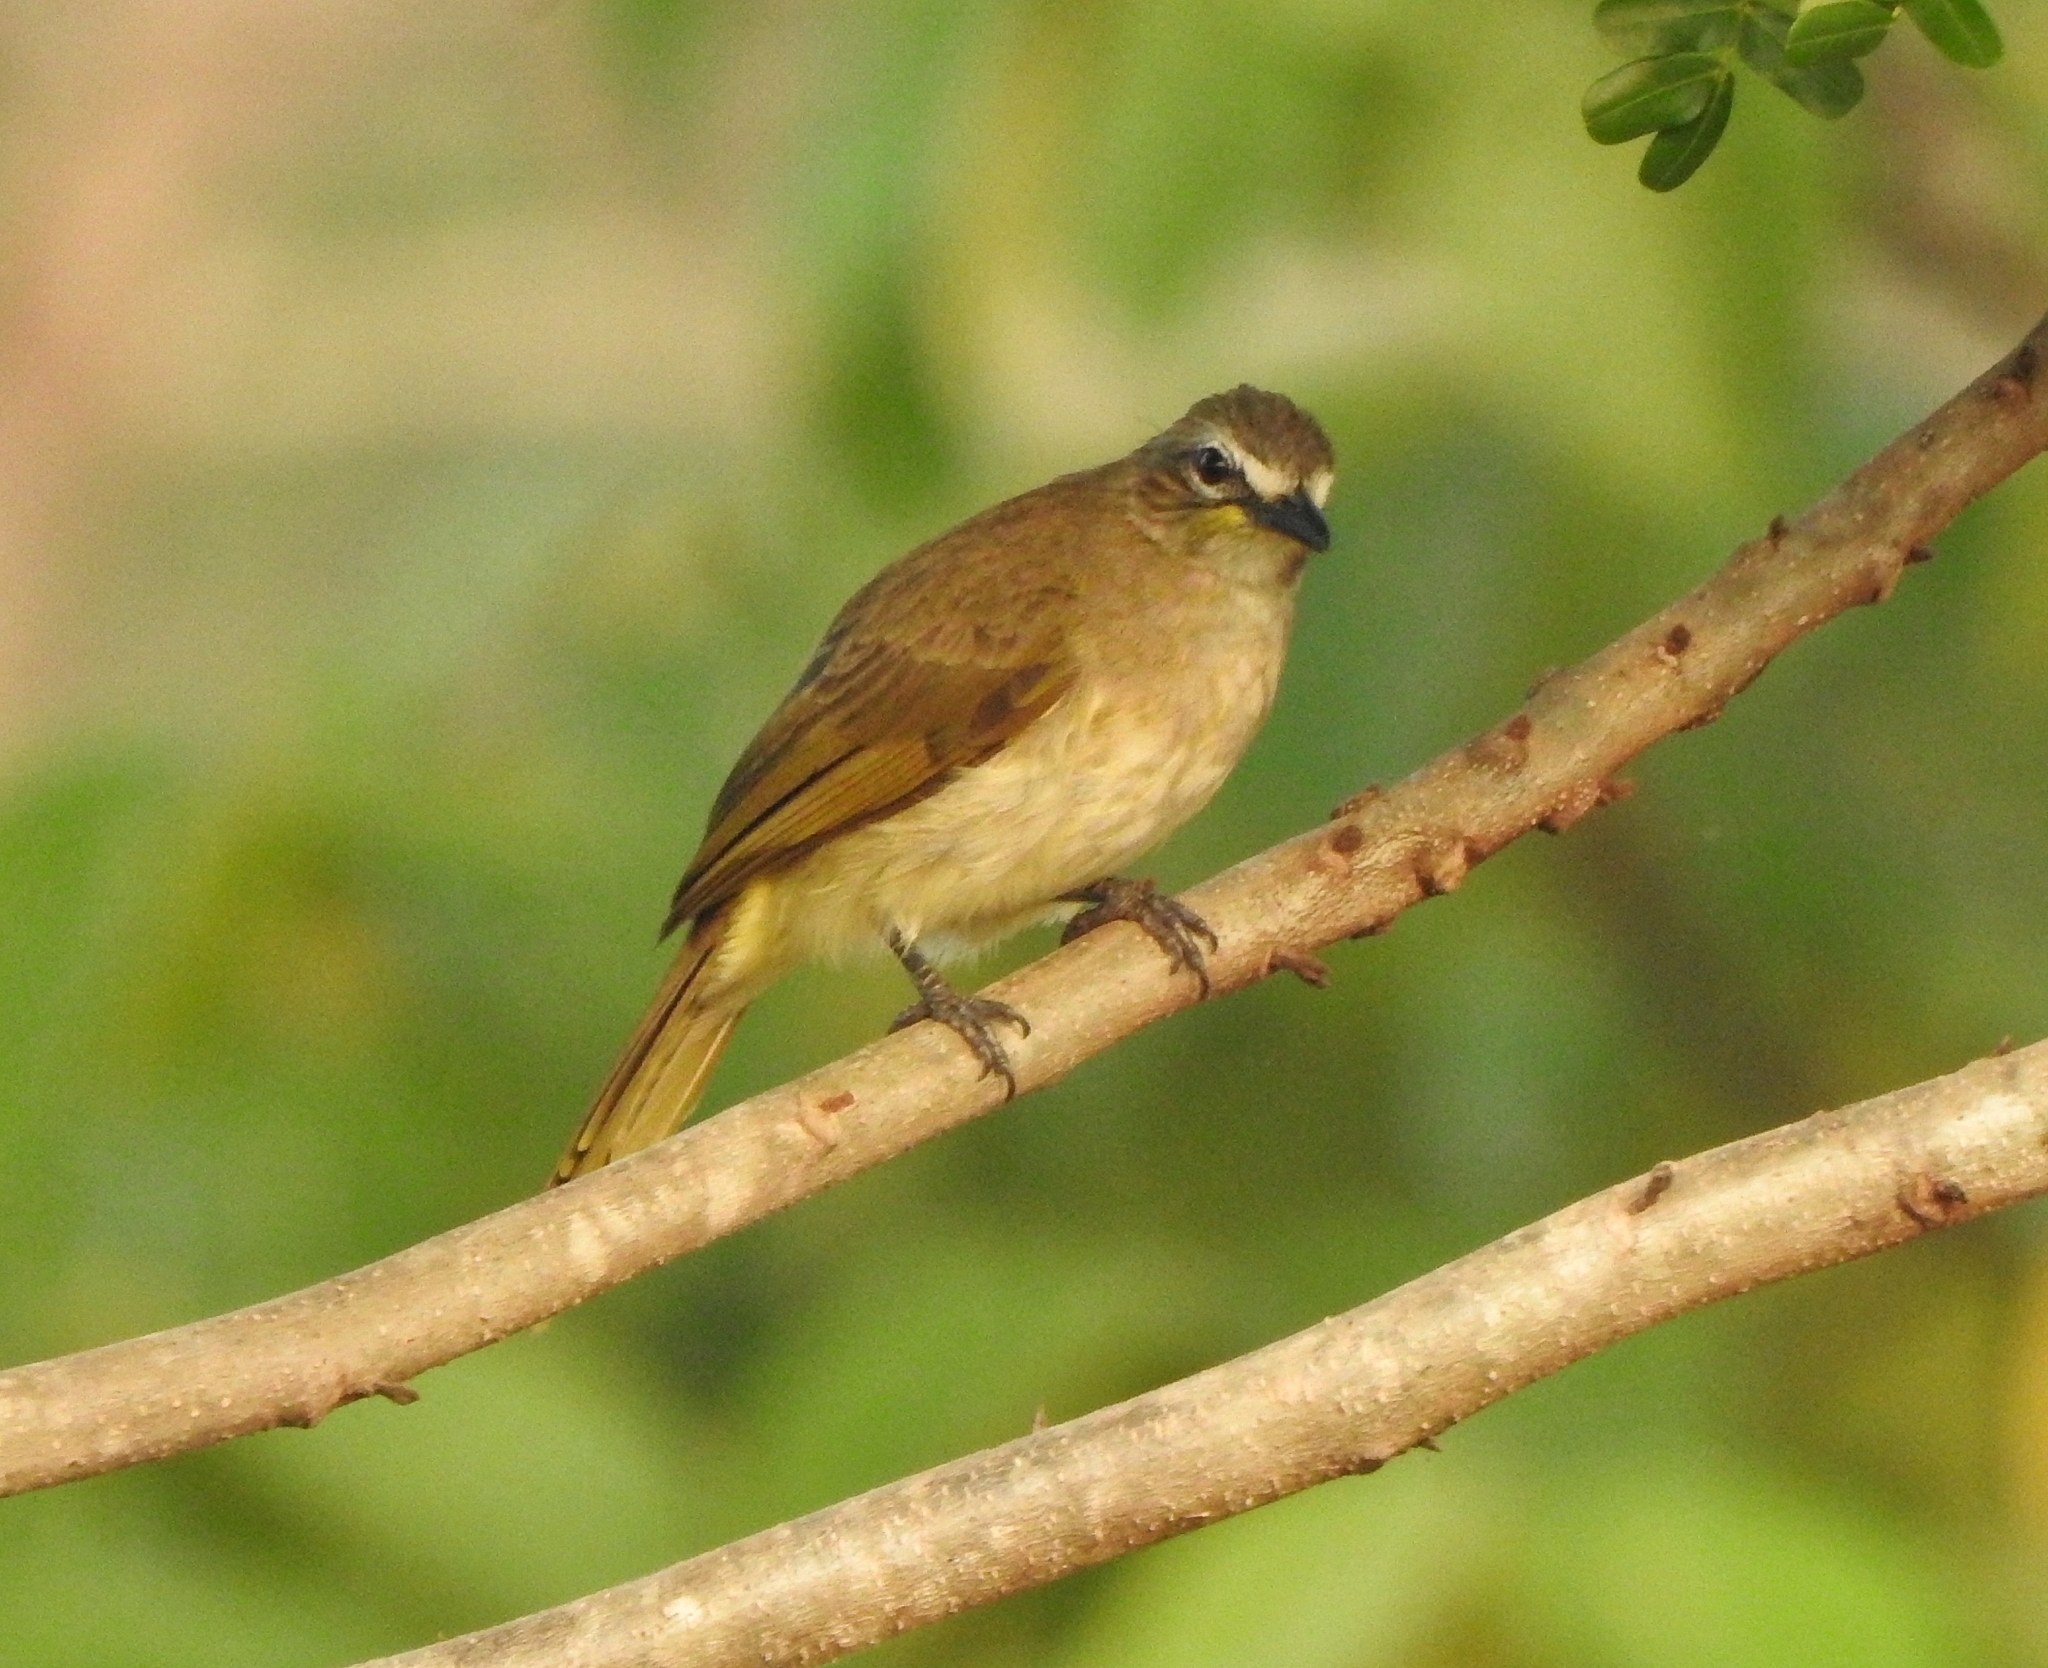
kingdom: Animalia
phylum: Chordata
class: Aves
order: Passeriformes
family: Pycnonotidae
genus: Pycnonotus
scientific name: Pycnonotus luteolus
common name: White-browed bulbul
